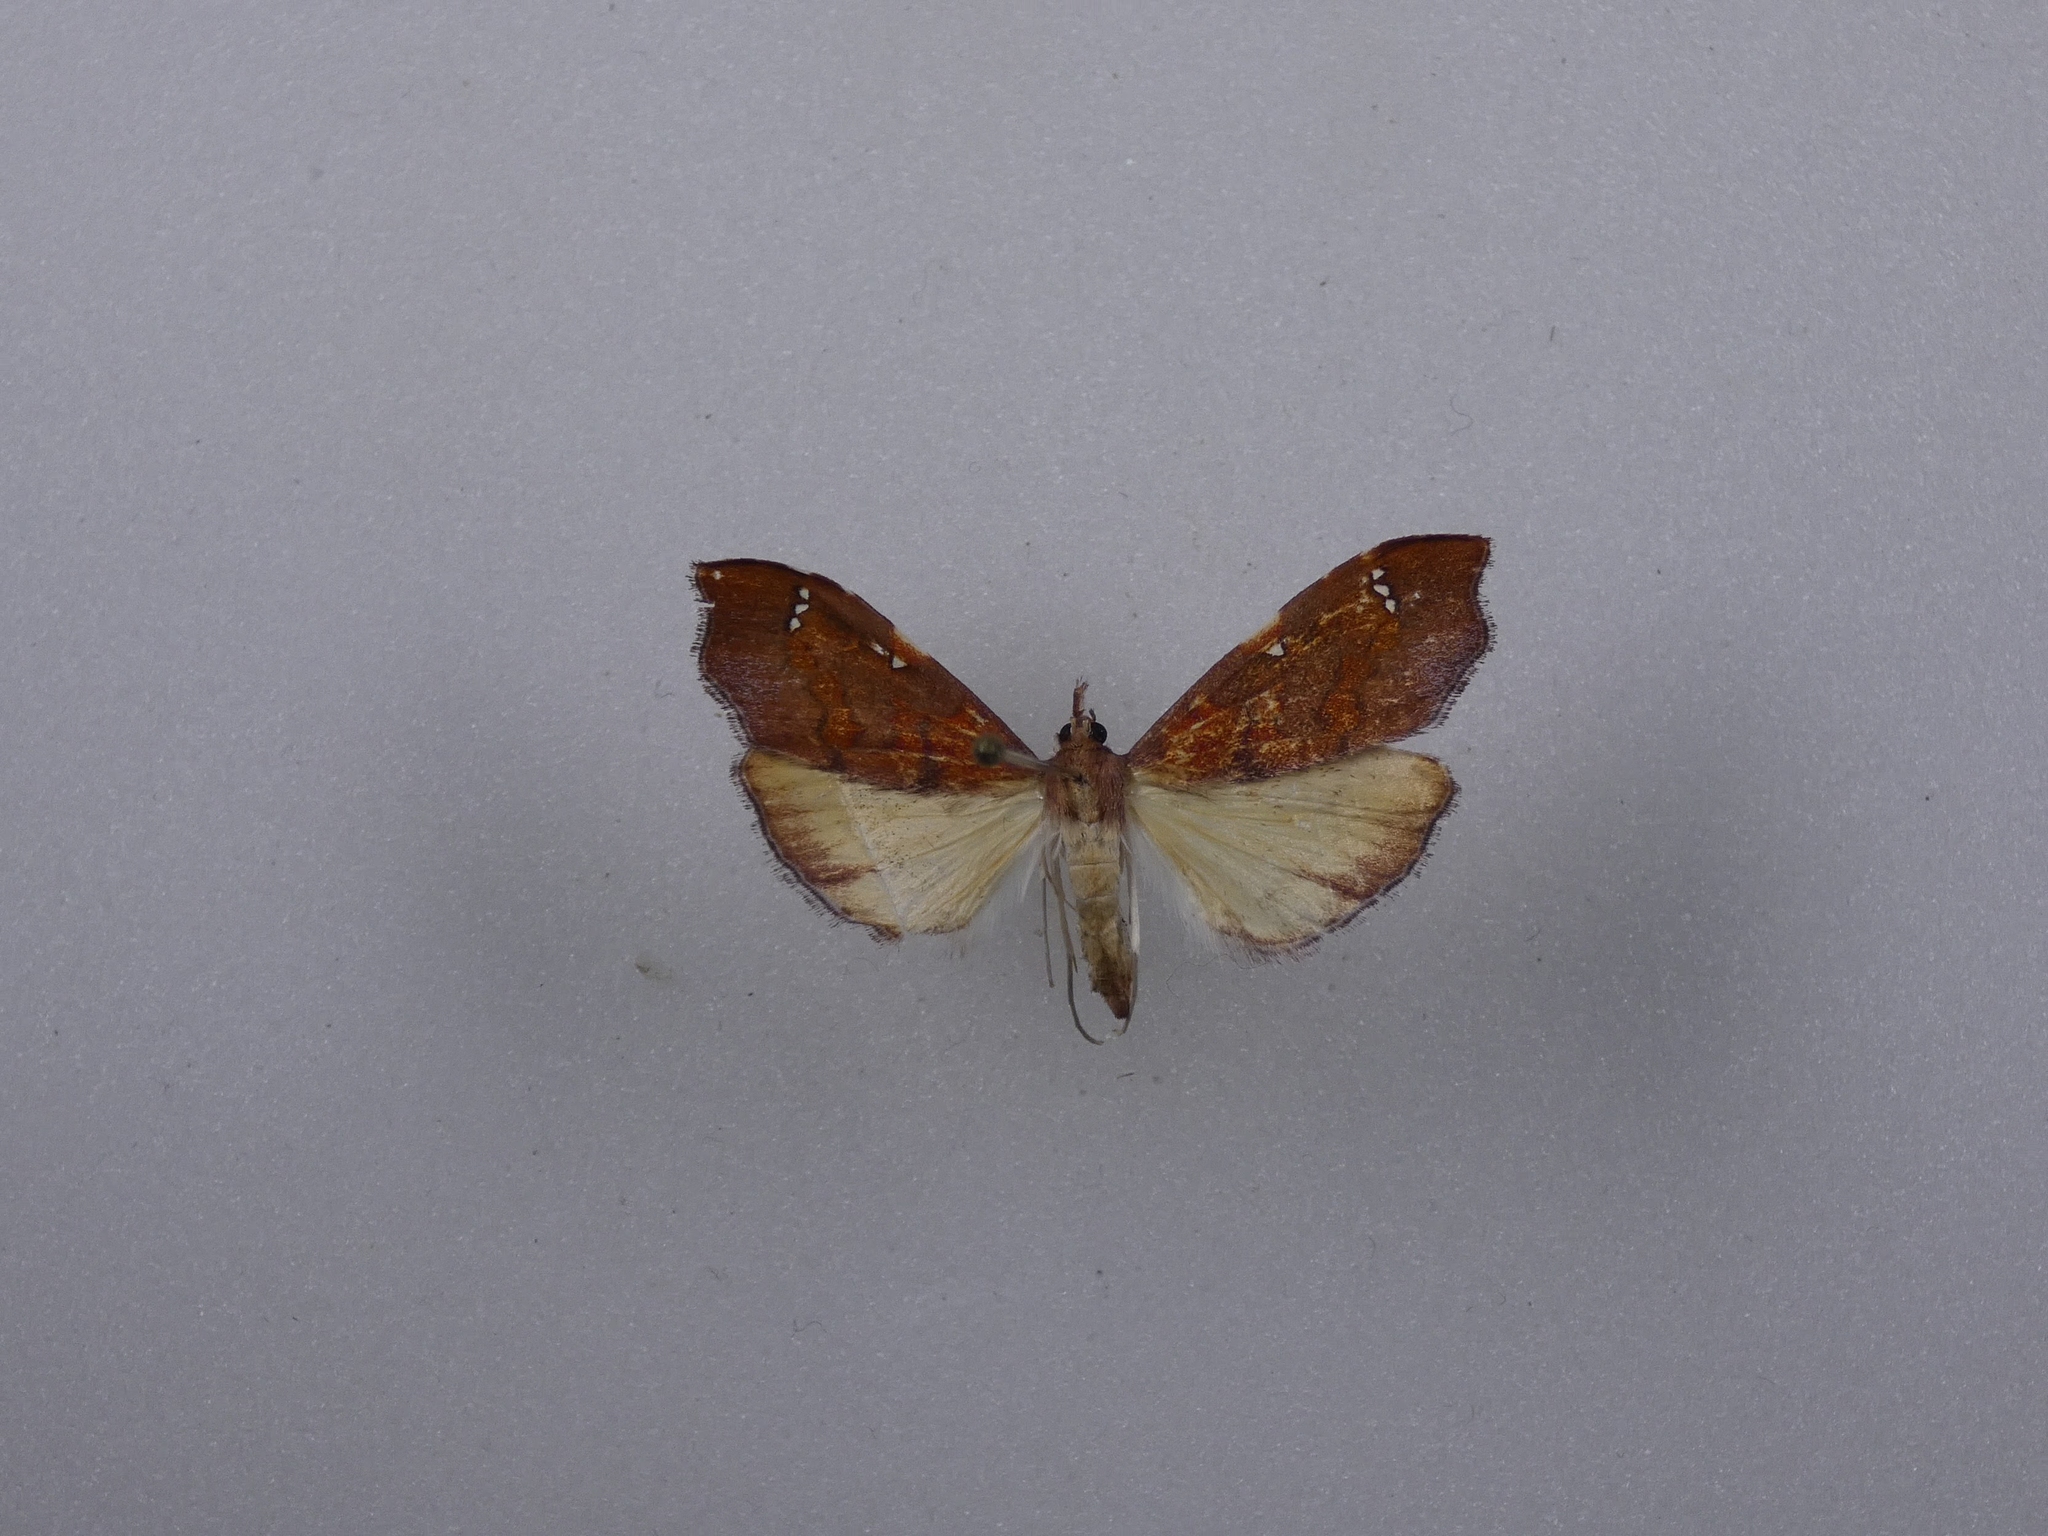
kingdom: Animalia
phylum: Arthropoda
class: Insecta
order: Lepidoptera
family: Crambidae
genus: Deana
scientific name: Deana hybreasalis
